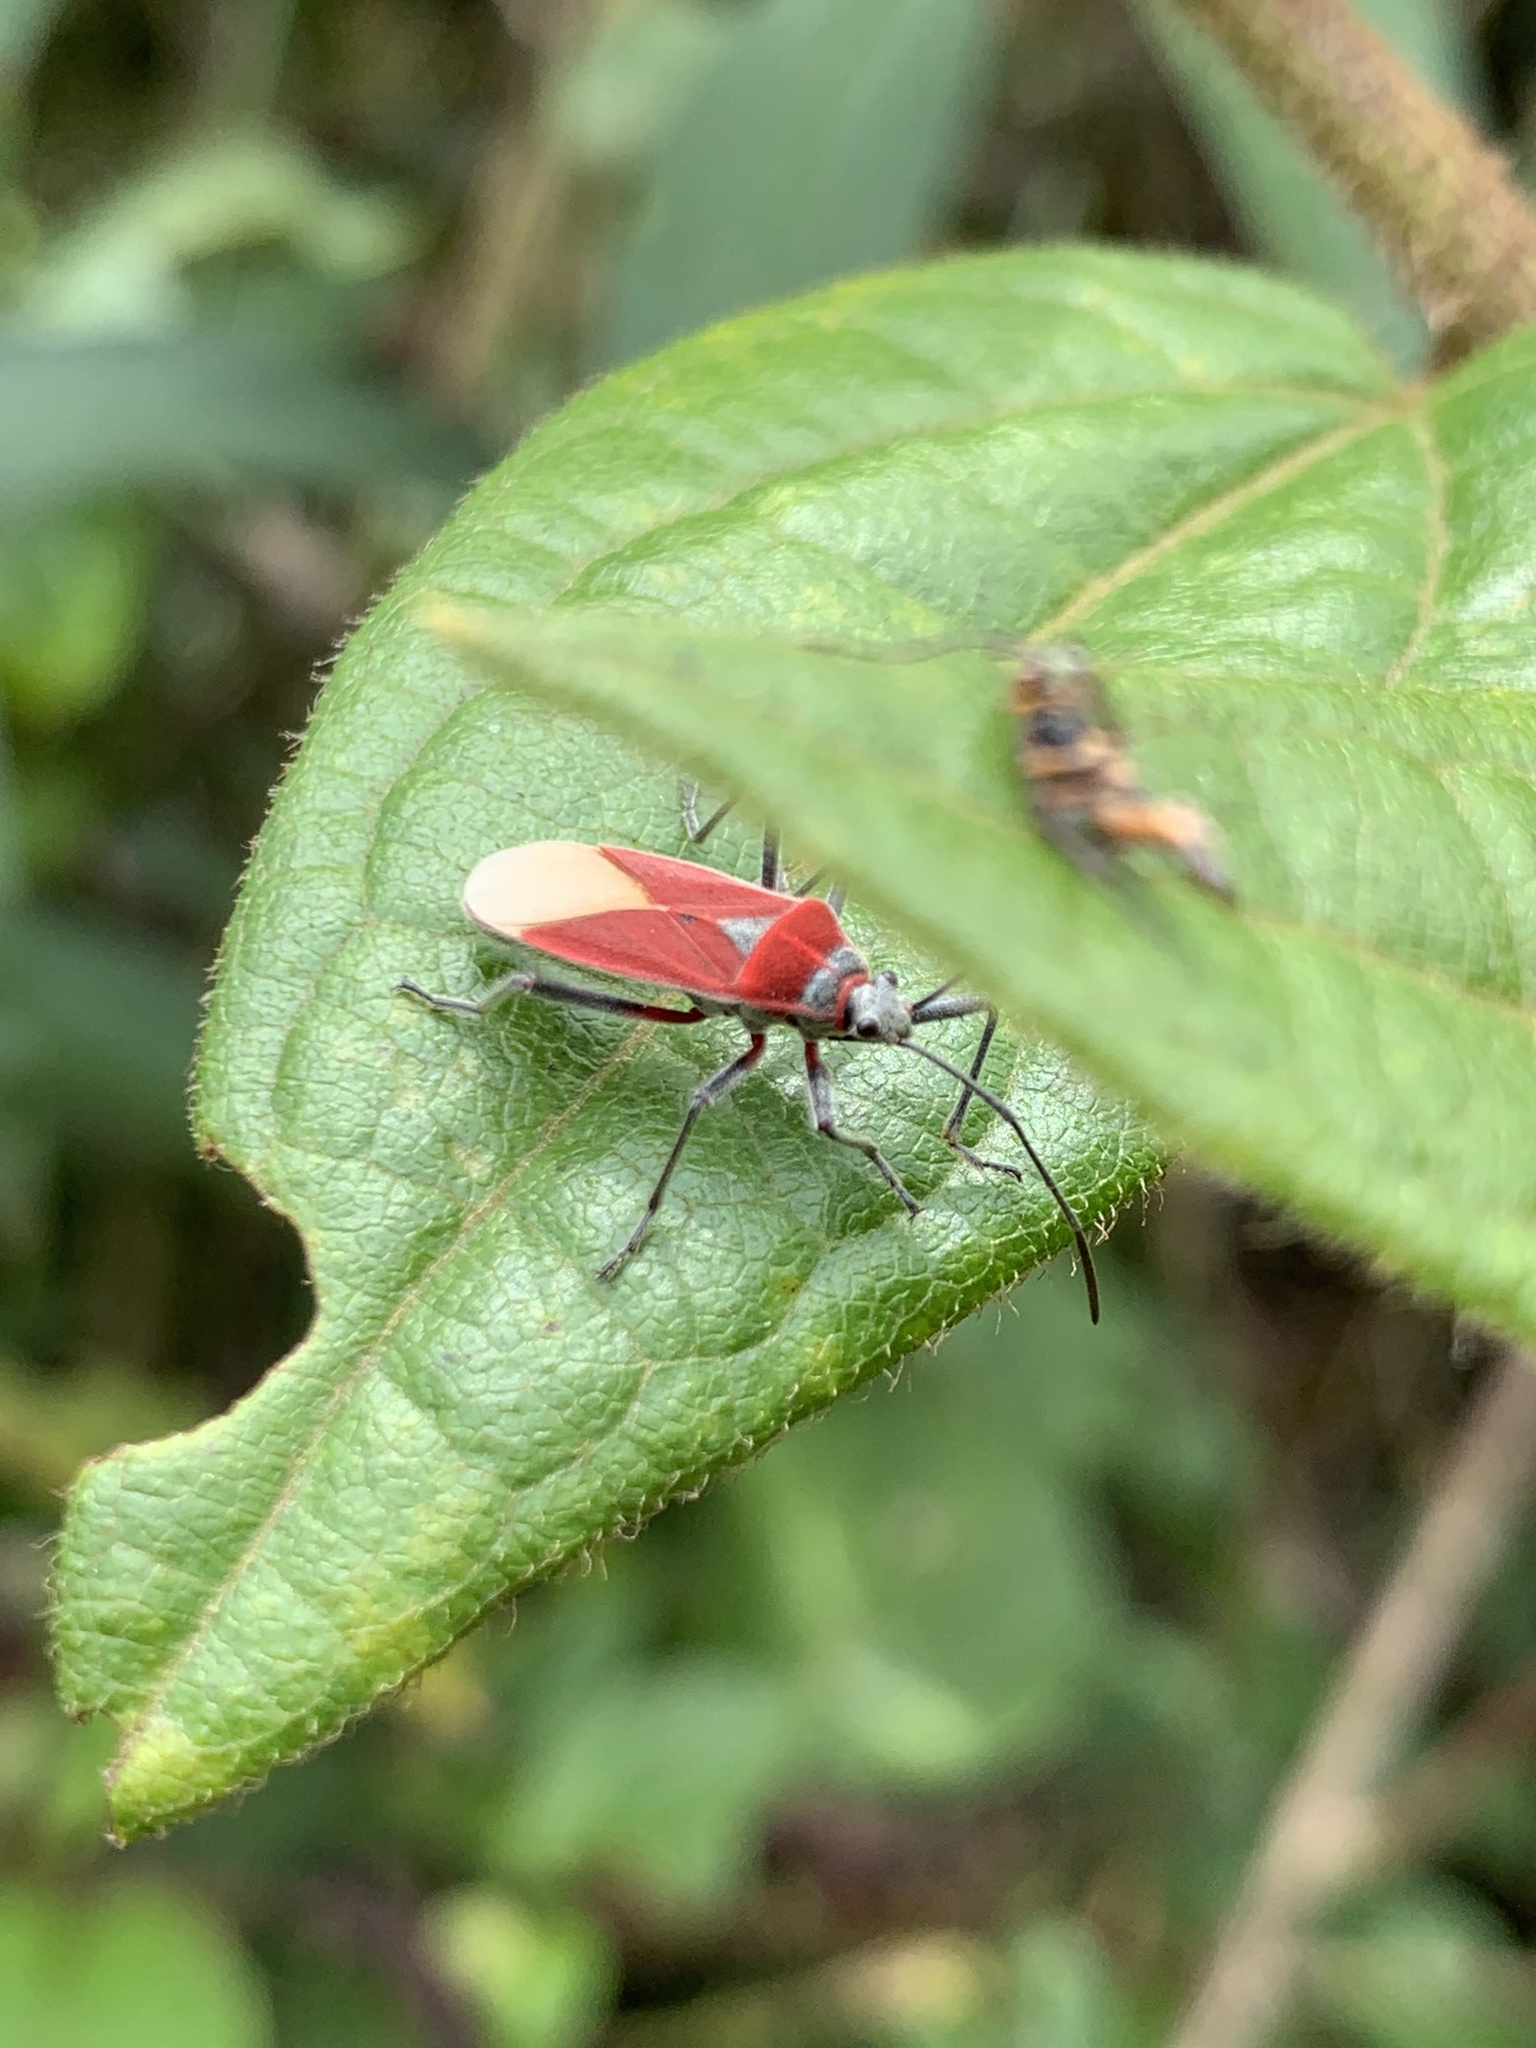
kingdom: Animalia
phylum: Arthropoda
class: Insecta
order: Hemiptera
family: Largidae
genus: Stenomacra
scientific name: Stenomacra tungurahuana
